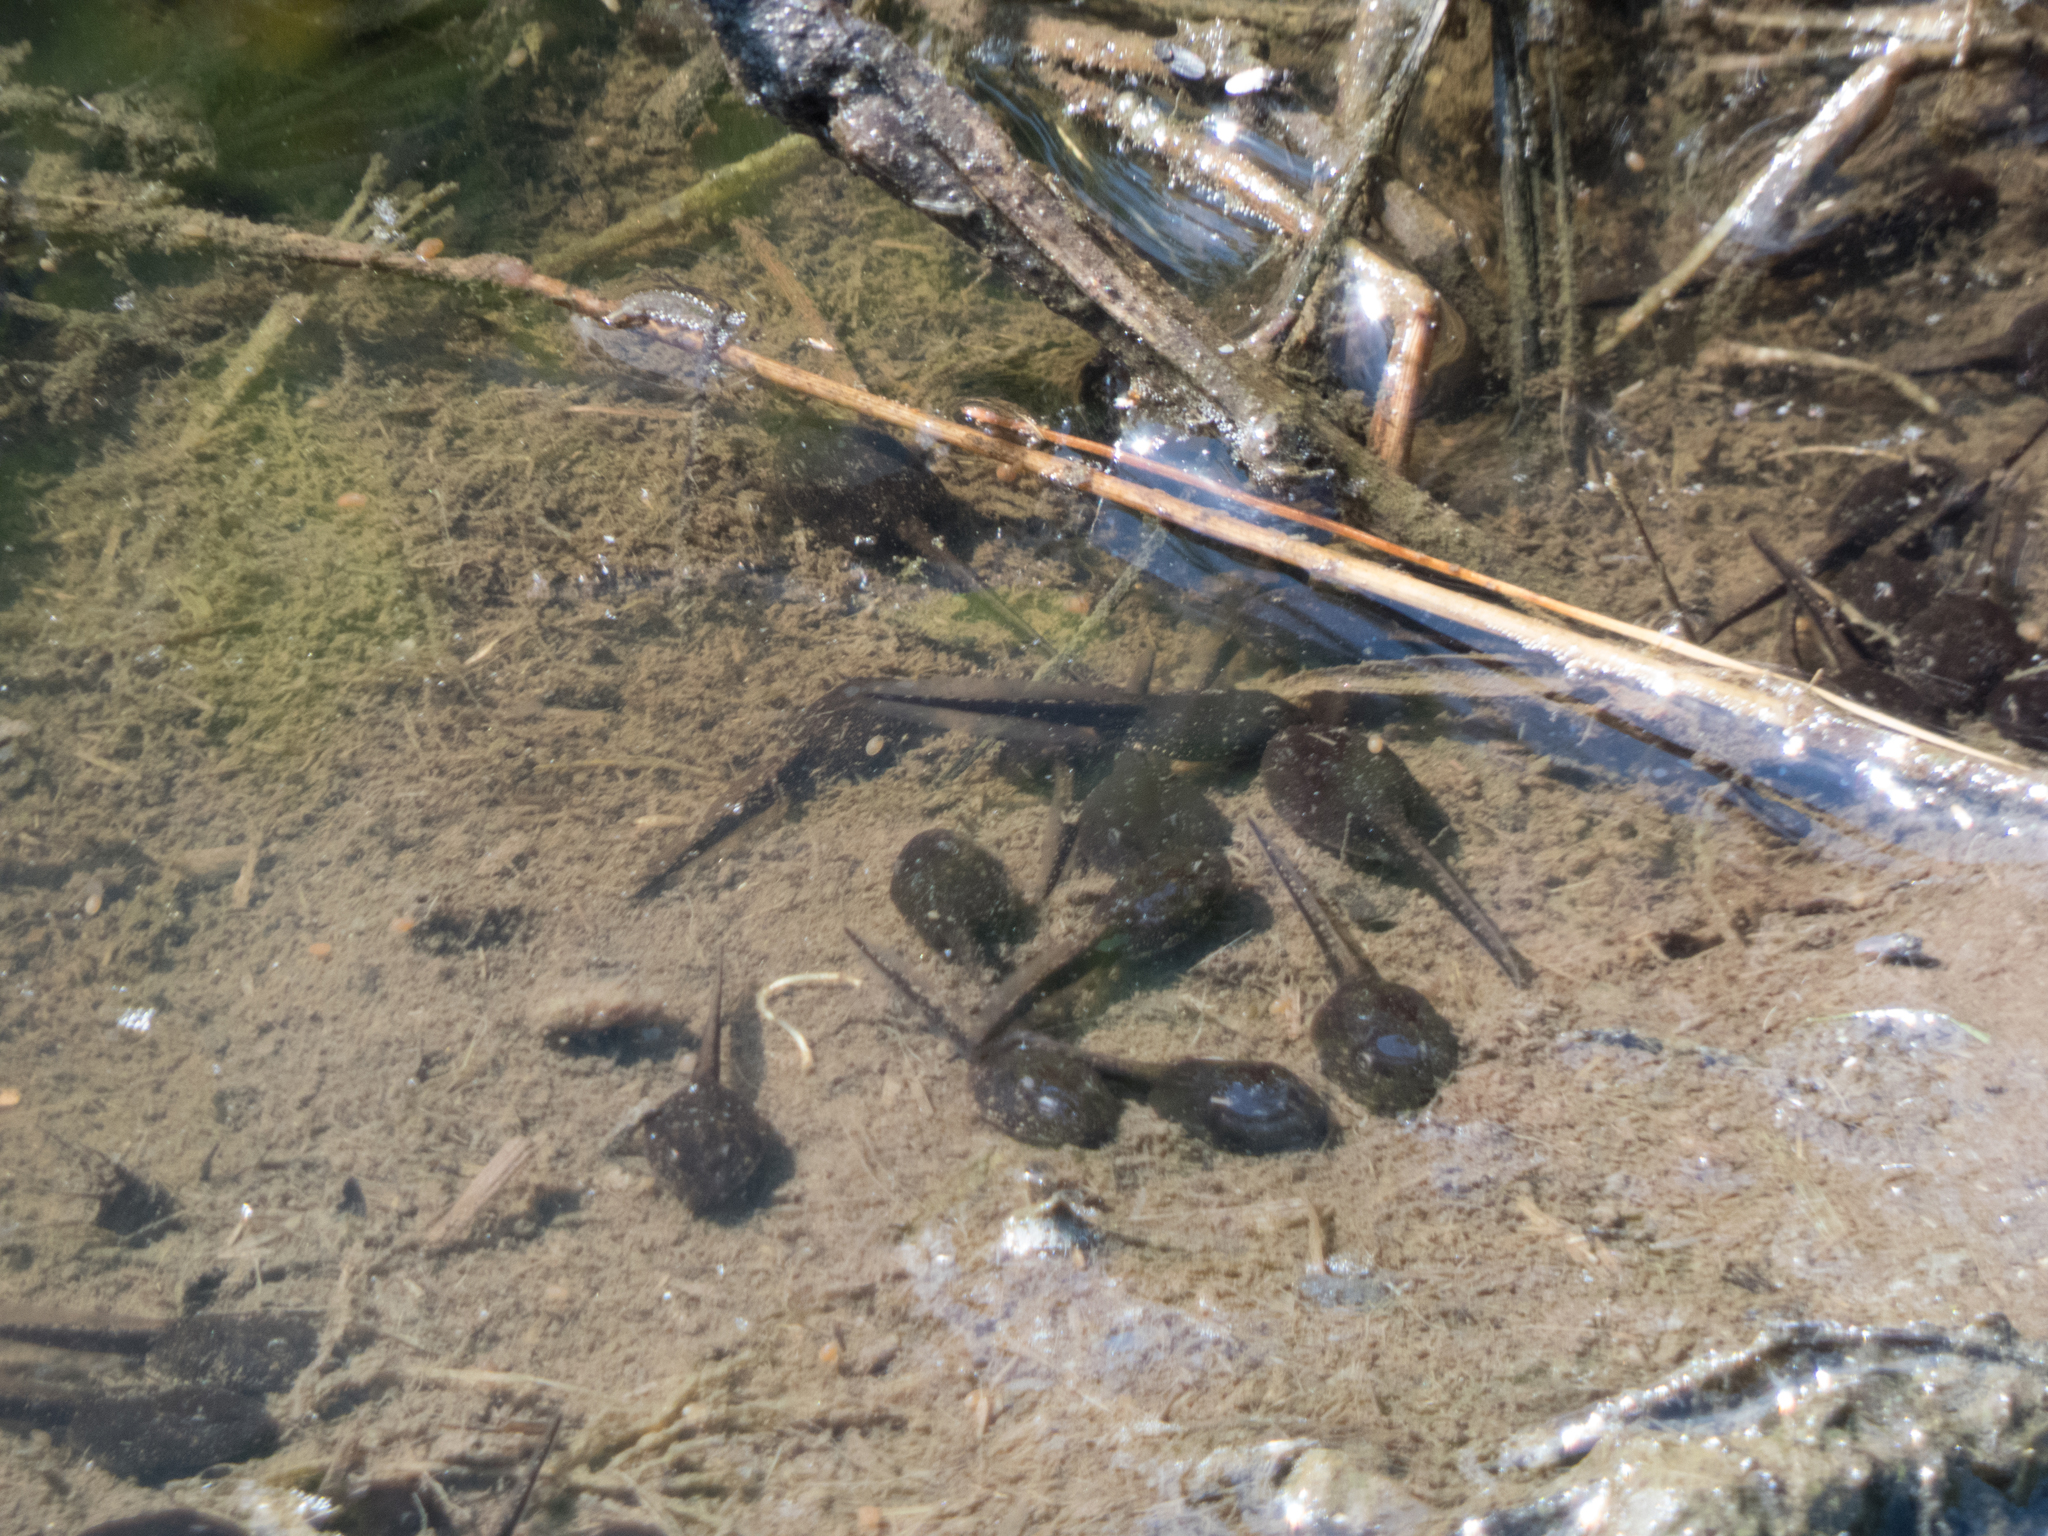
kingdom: Animalia
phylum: Chordata
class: Amphibia
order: Anura
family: Bufonidae
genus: Anaxyrus
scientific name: Anaxyrus americanus
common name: American toad
